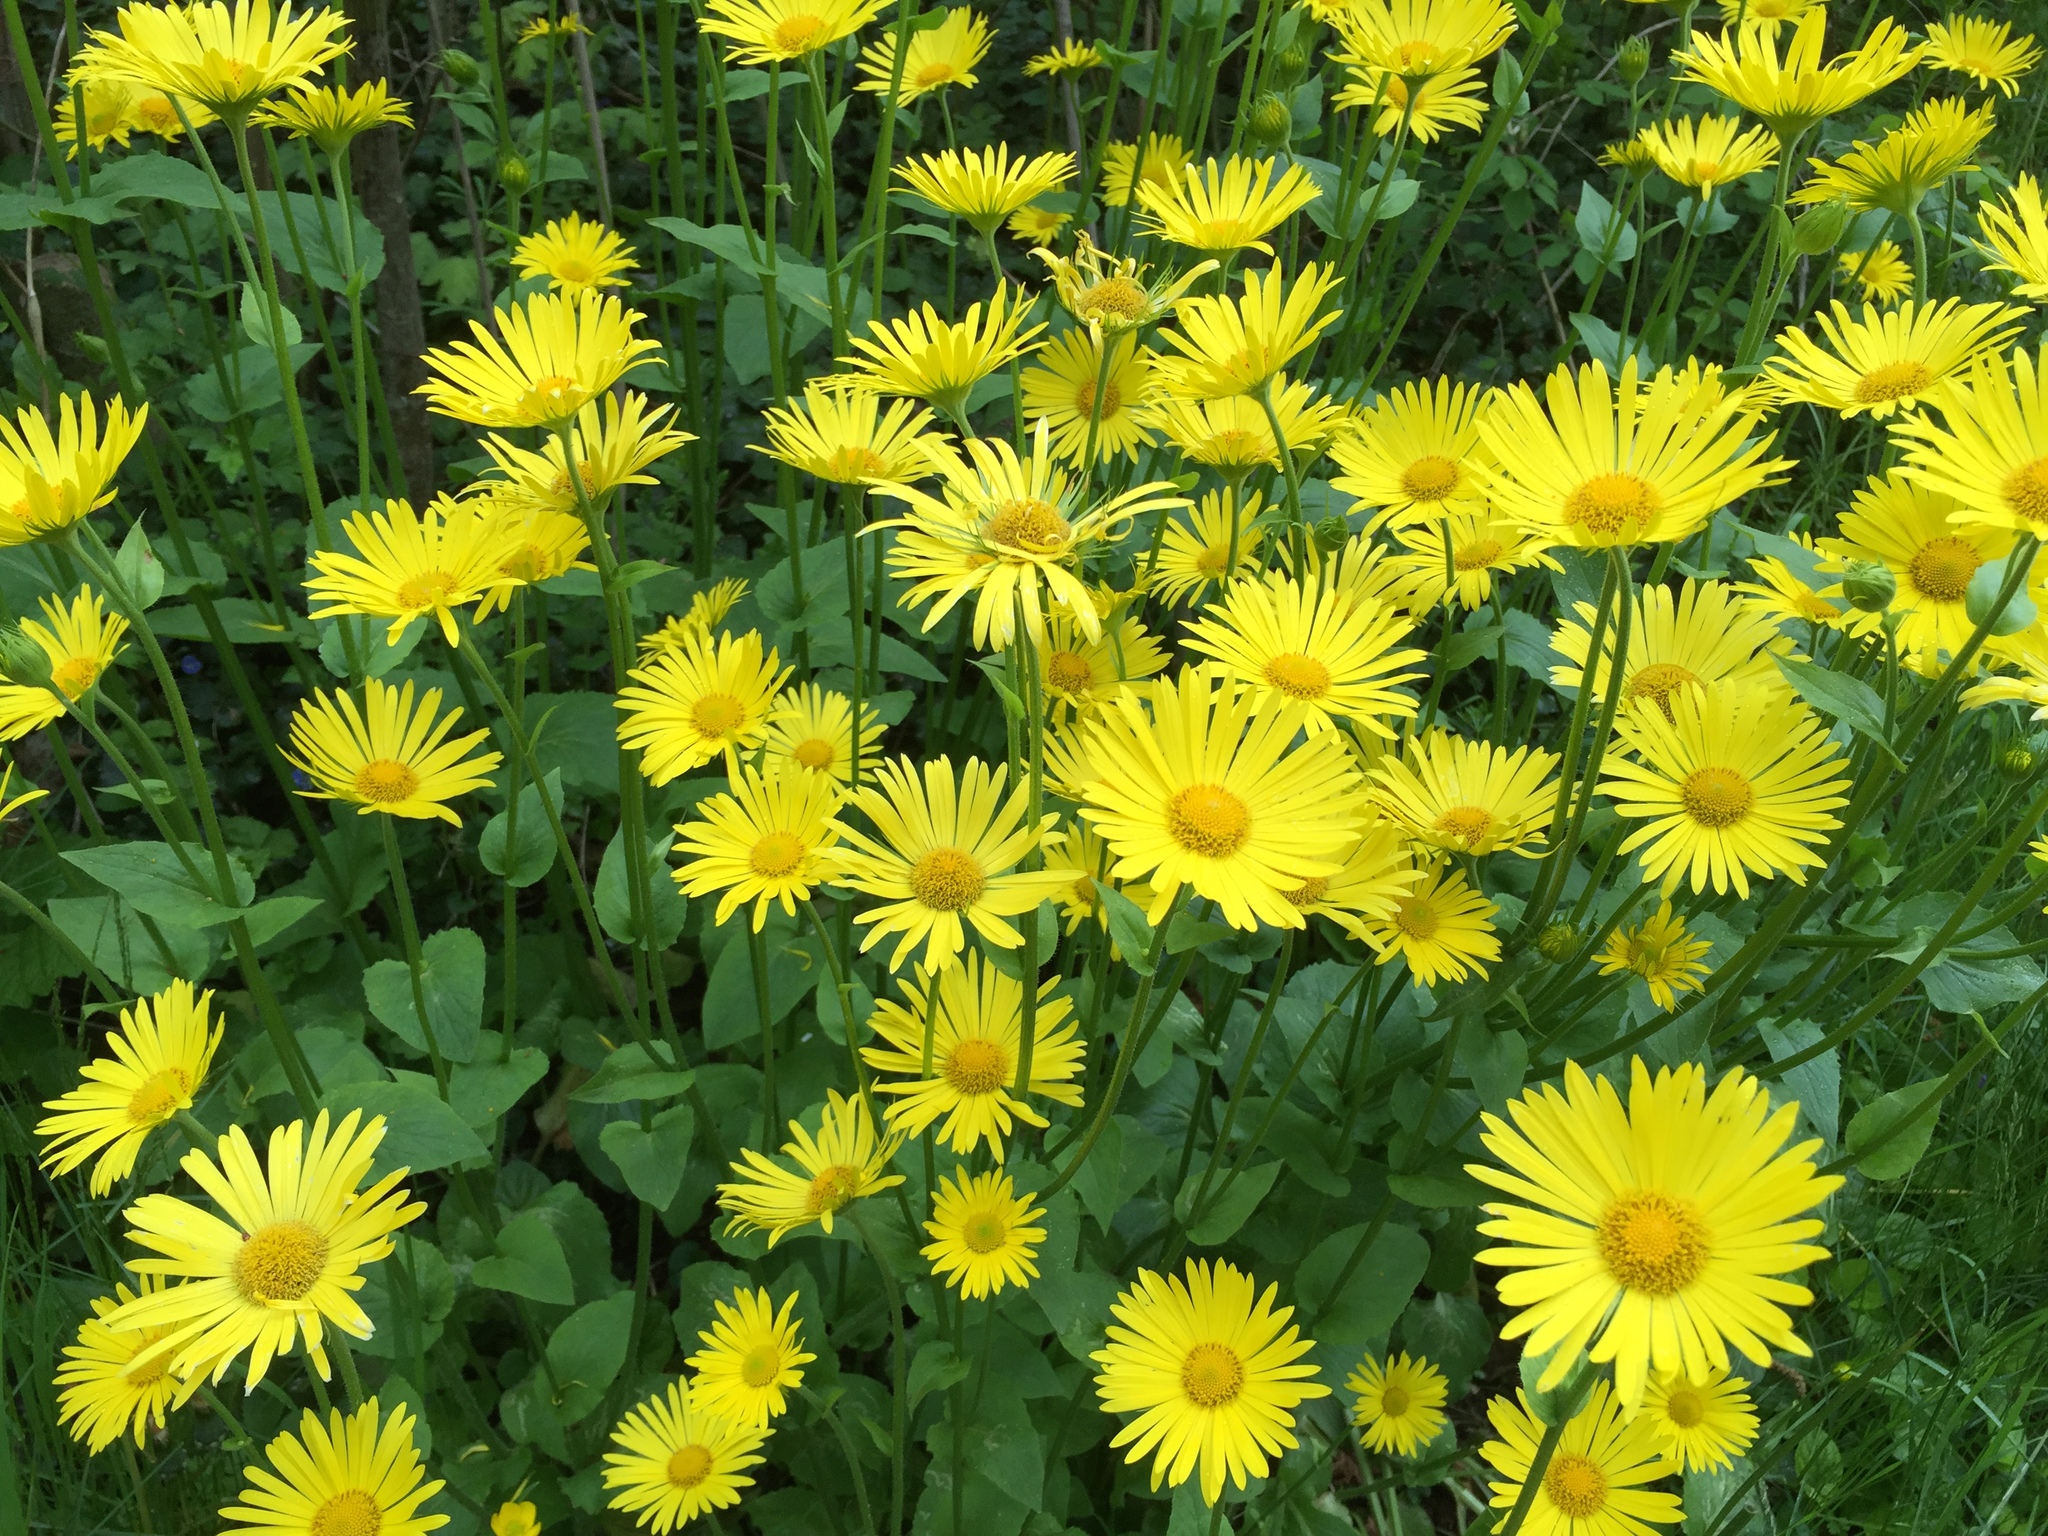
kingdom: Plantae
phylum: Tracheophyta
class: Magnoliopsida
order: Asterales
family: Asteraceae
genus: Doronicum
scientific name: Doronicum pardalianches
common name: Leopard's-bane
